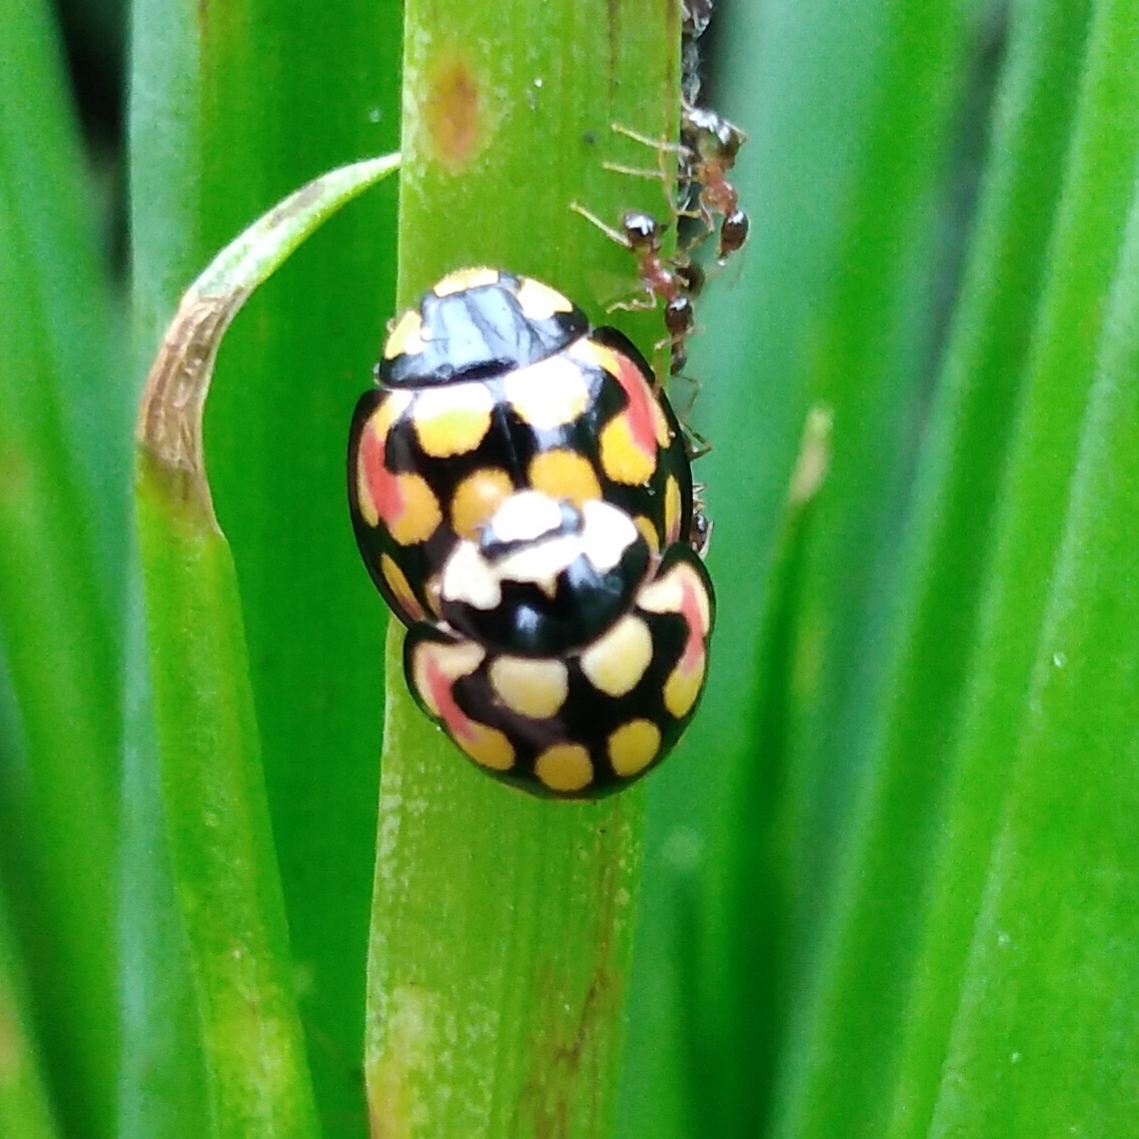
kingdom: Animalia
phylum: Arthropoda
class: Insecta
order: Coleoptera
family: Coccinellidae
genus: Cheilomenes
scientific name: Cheilomenes sulphurea
